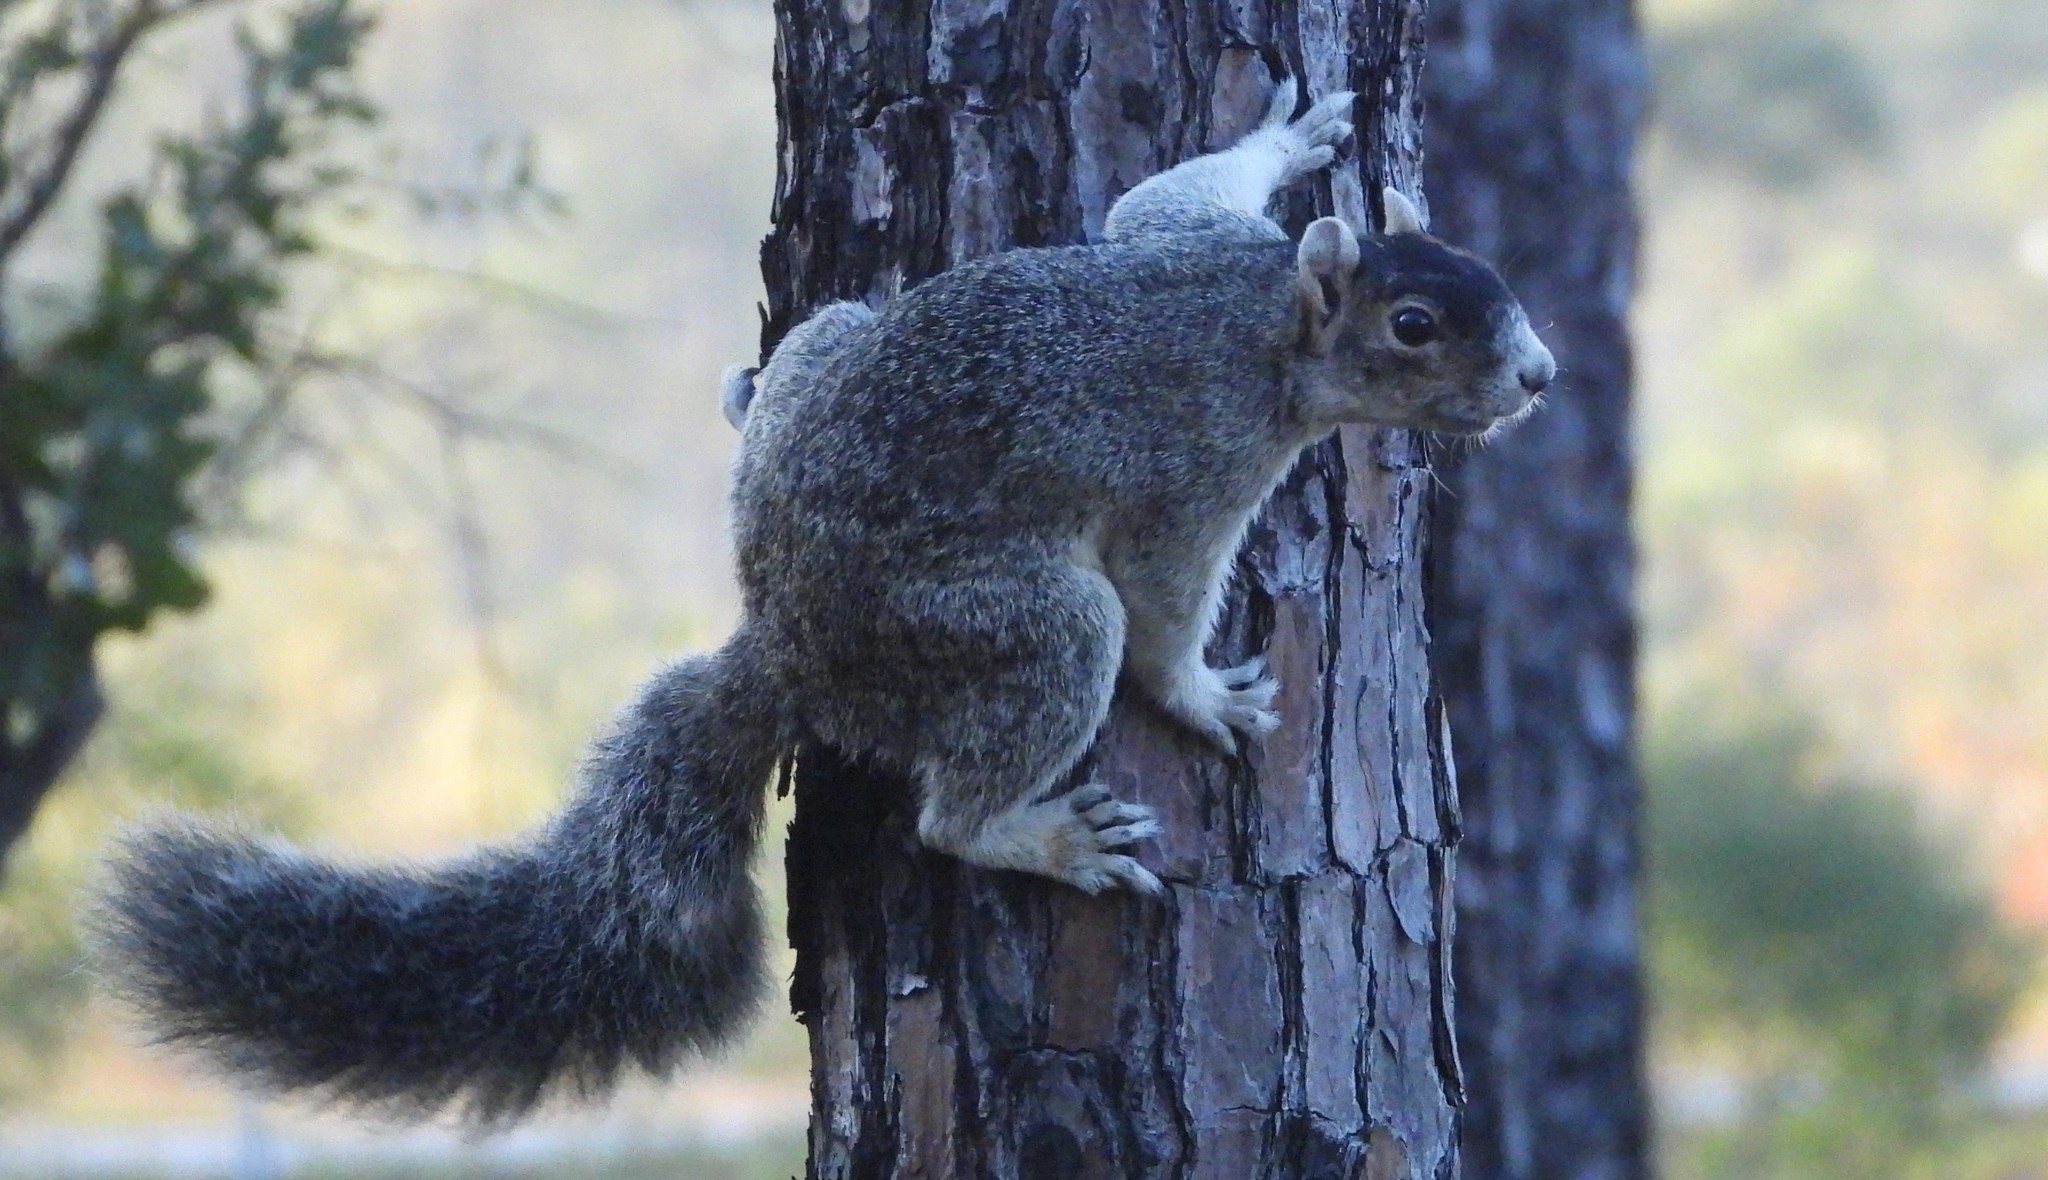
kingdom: Animalia
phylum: Chordata
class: Mammalia
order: Rodentia
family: Sciuridae
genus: Sciurus
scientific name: Sciurus niger
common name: Fox squirrel
